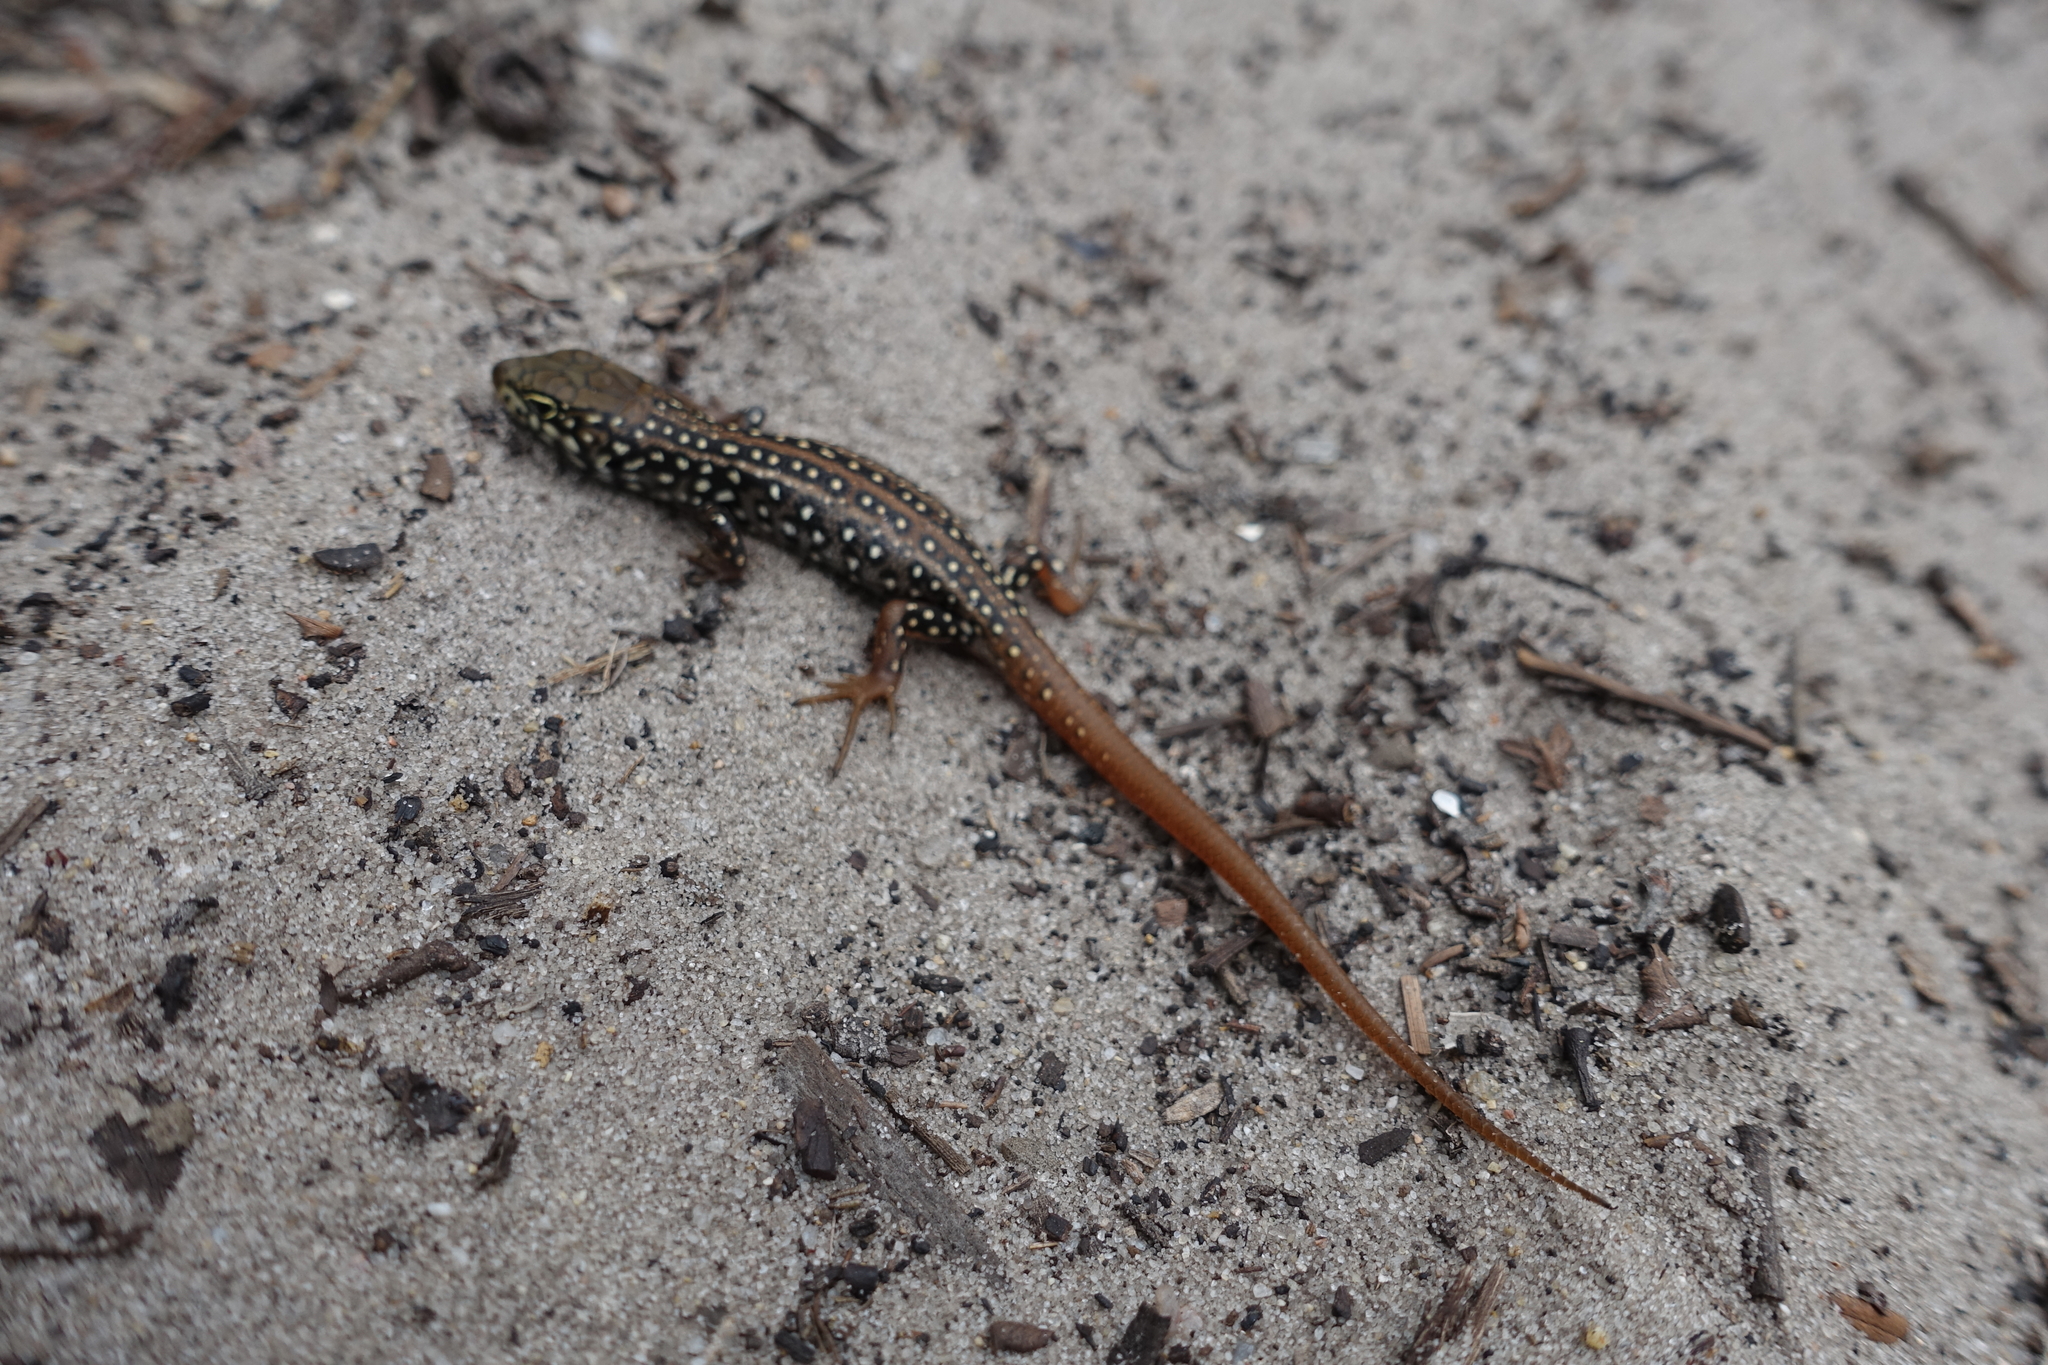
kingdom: Animalia
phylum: Chordata
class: Squamata
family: Scincidae
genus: Liopholis
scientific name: Liopholis whitii
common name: White's rock-skink
